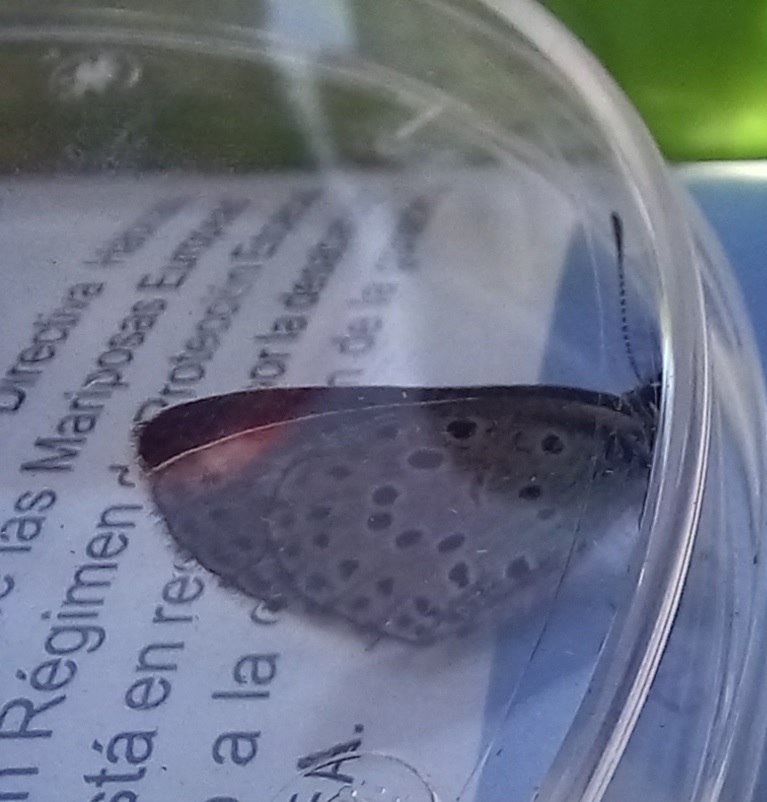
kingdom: Animalia
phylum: Arthropoda
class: Insecta
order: Lepidoptera
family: Lycaenidae
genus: Maculinea
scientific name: Maculinea arion
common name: Large blue
